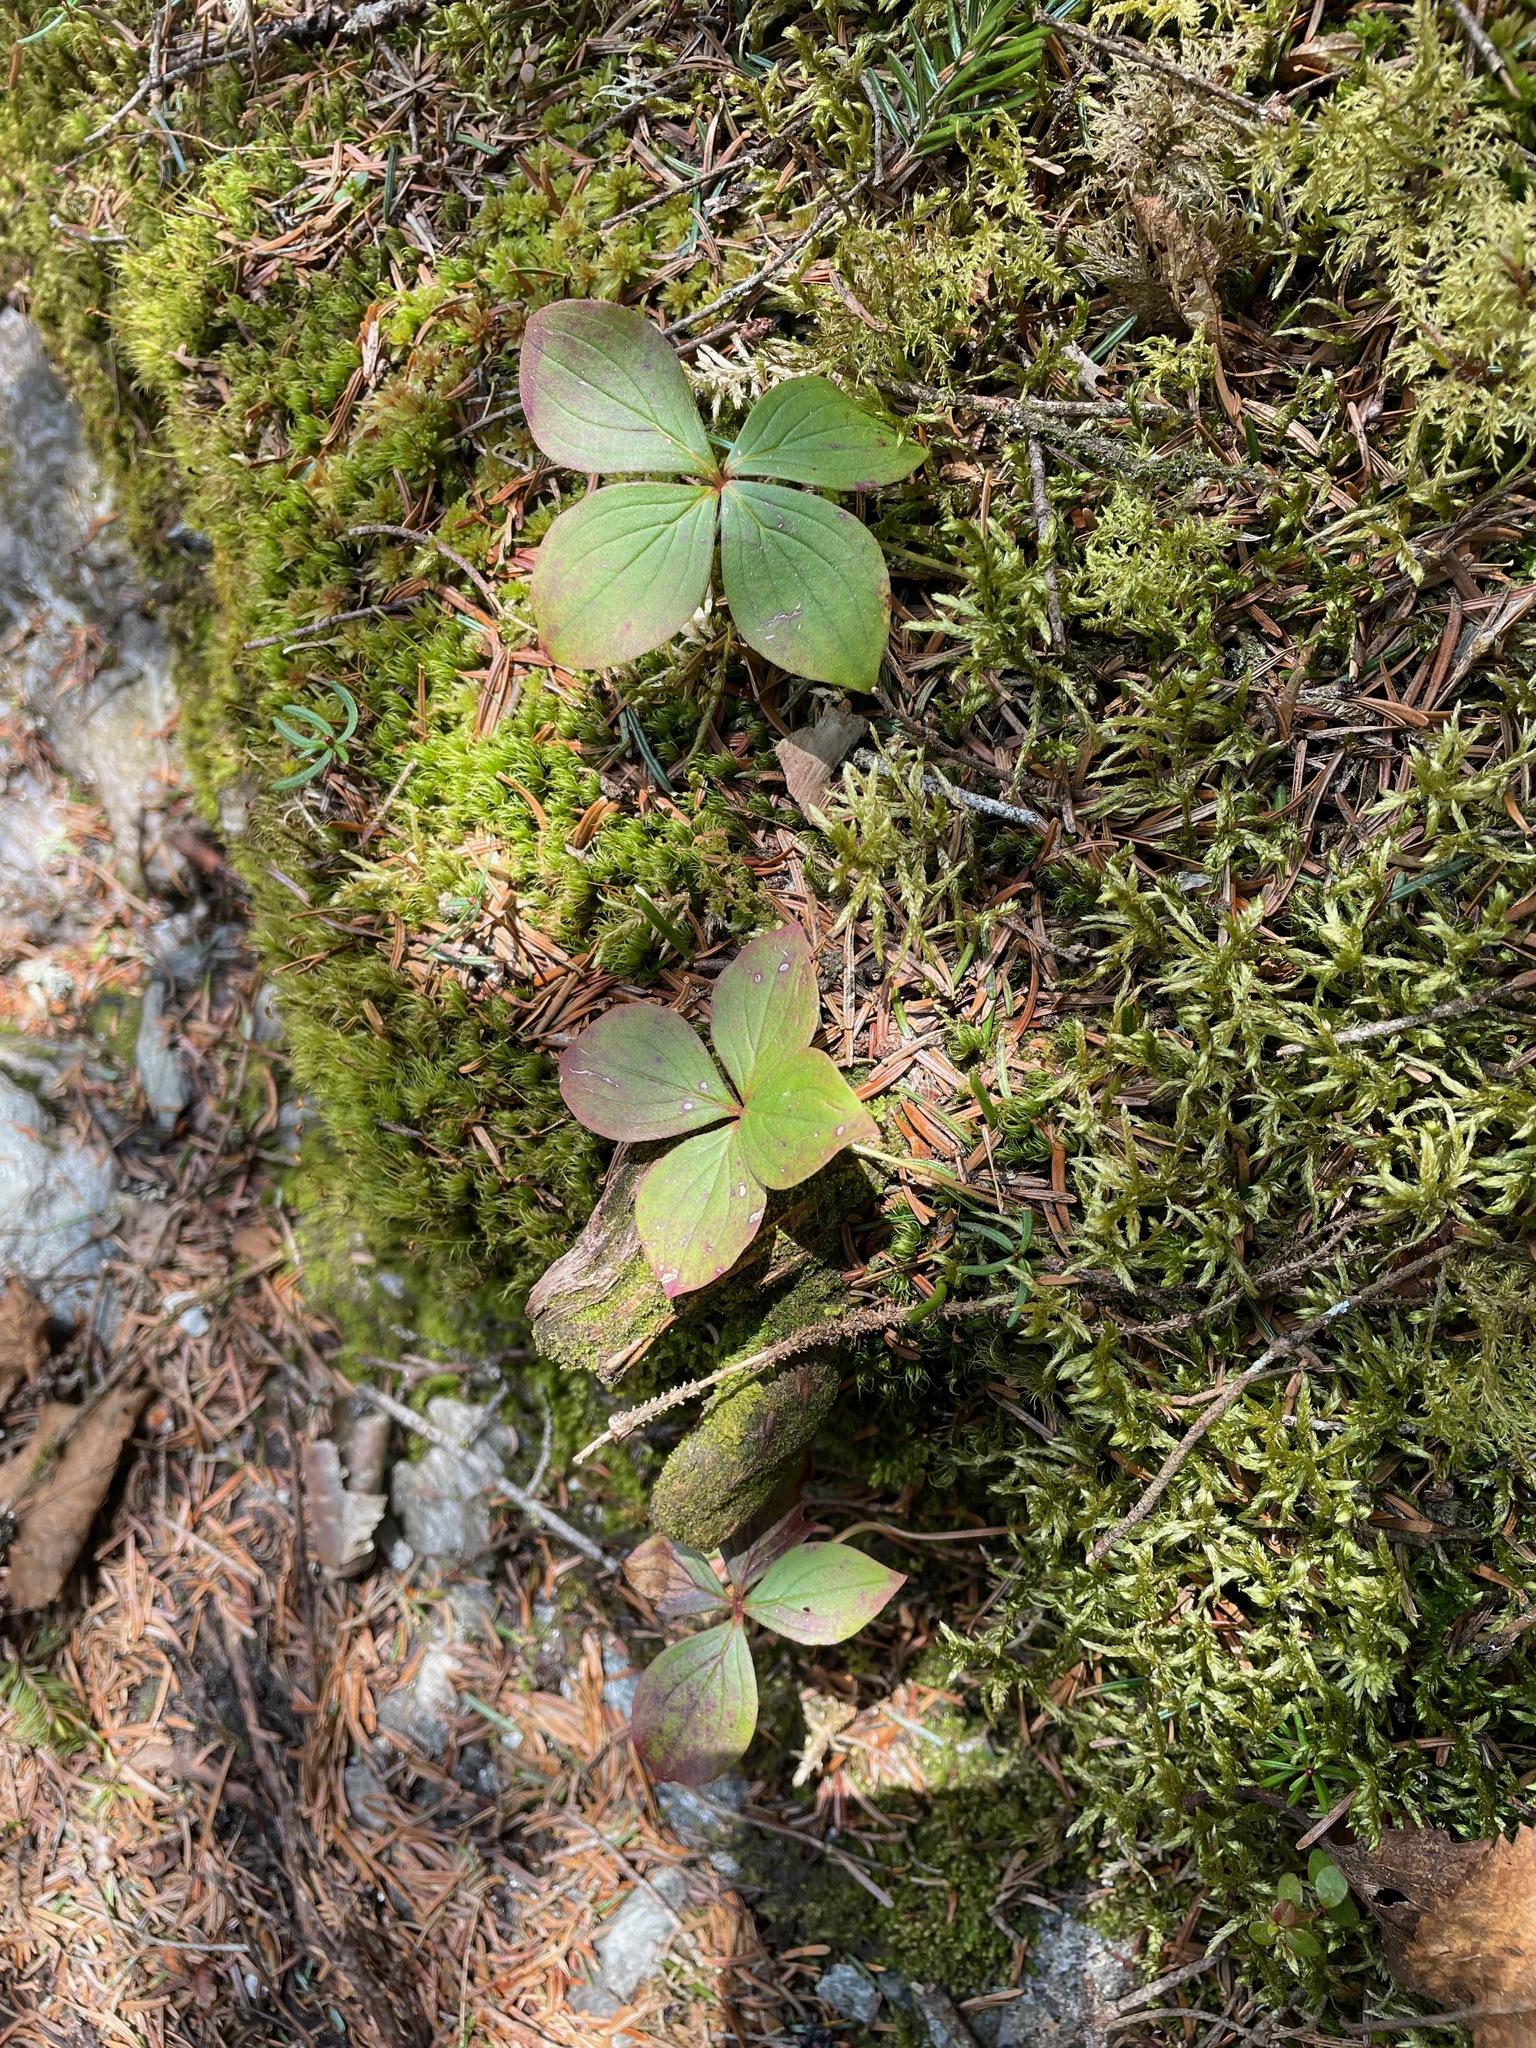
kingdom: Plantae
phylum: Tracheophyta
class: Magnoliopsida
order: Cornales
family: Cornaceae
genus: Cornus
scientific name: Cornus canadensis
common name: Creeping dogwood
